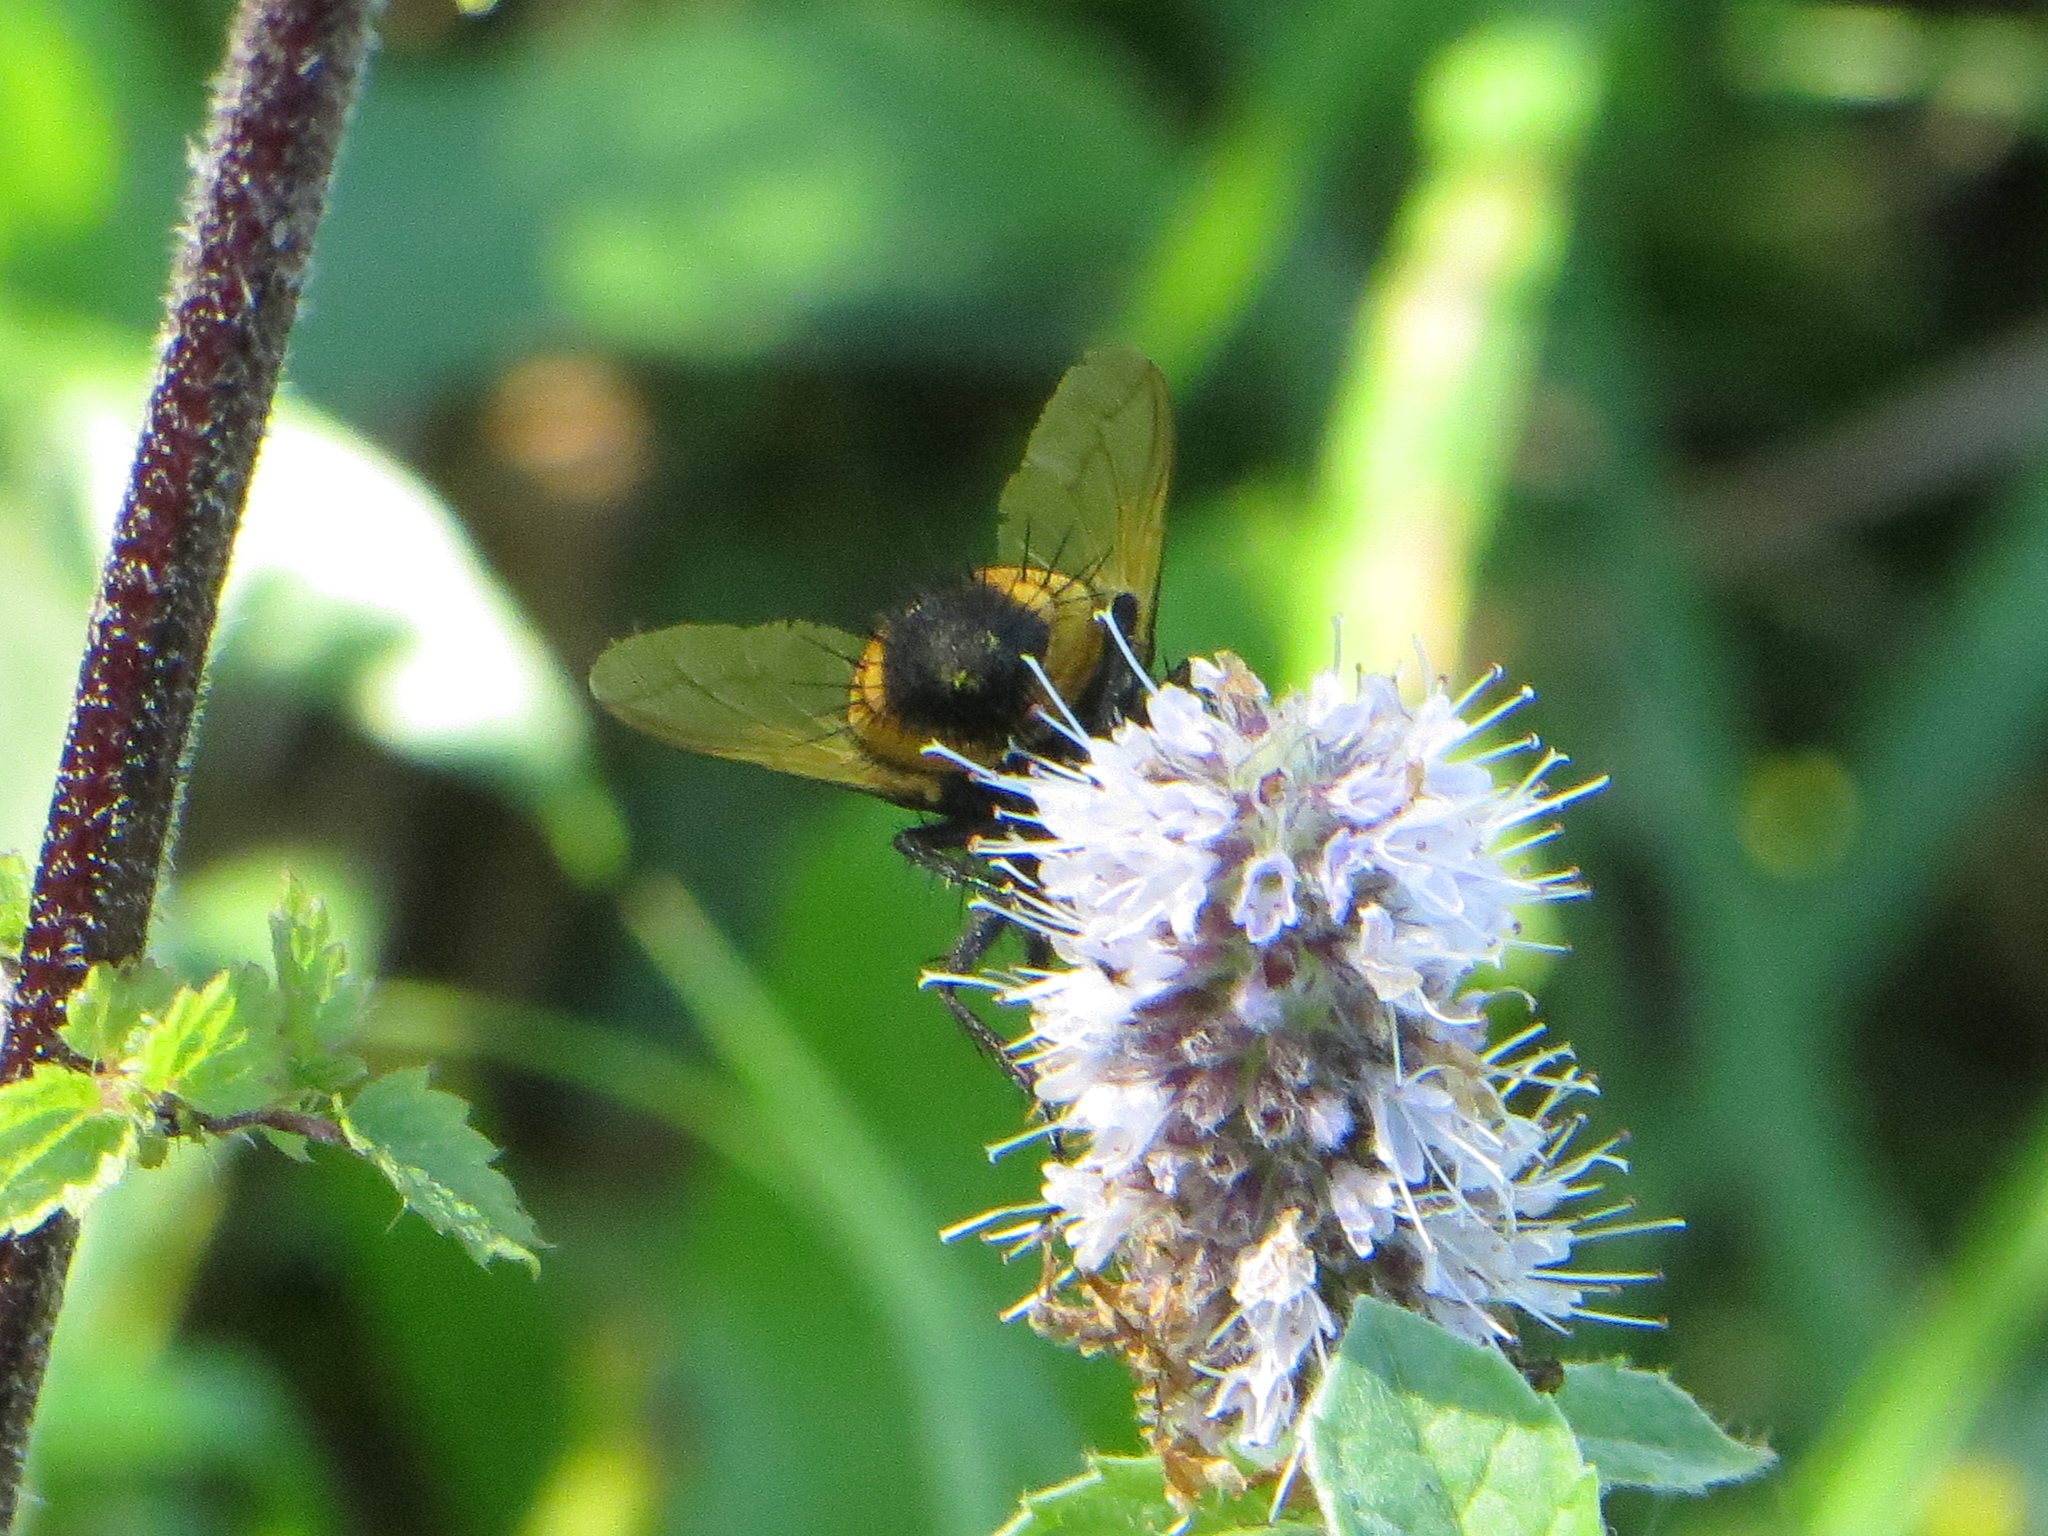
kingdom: Animalia
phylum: Arthropoda
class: Insecta
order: Diptera
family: Tachinidae
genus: Nowickia
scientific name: Nowickia ferox
